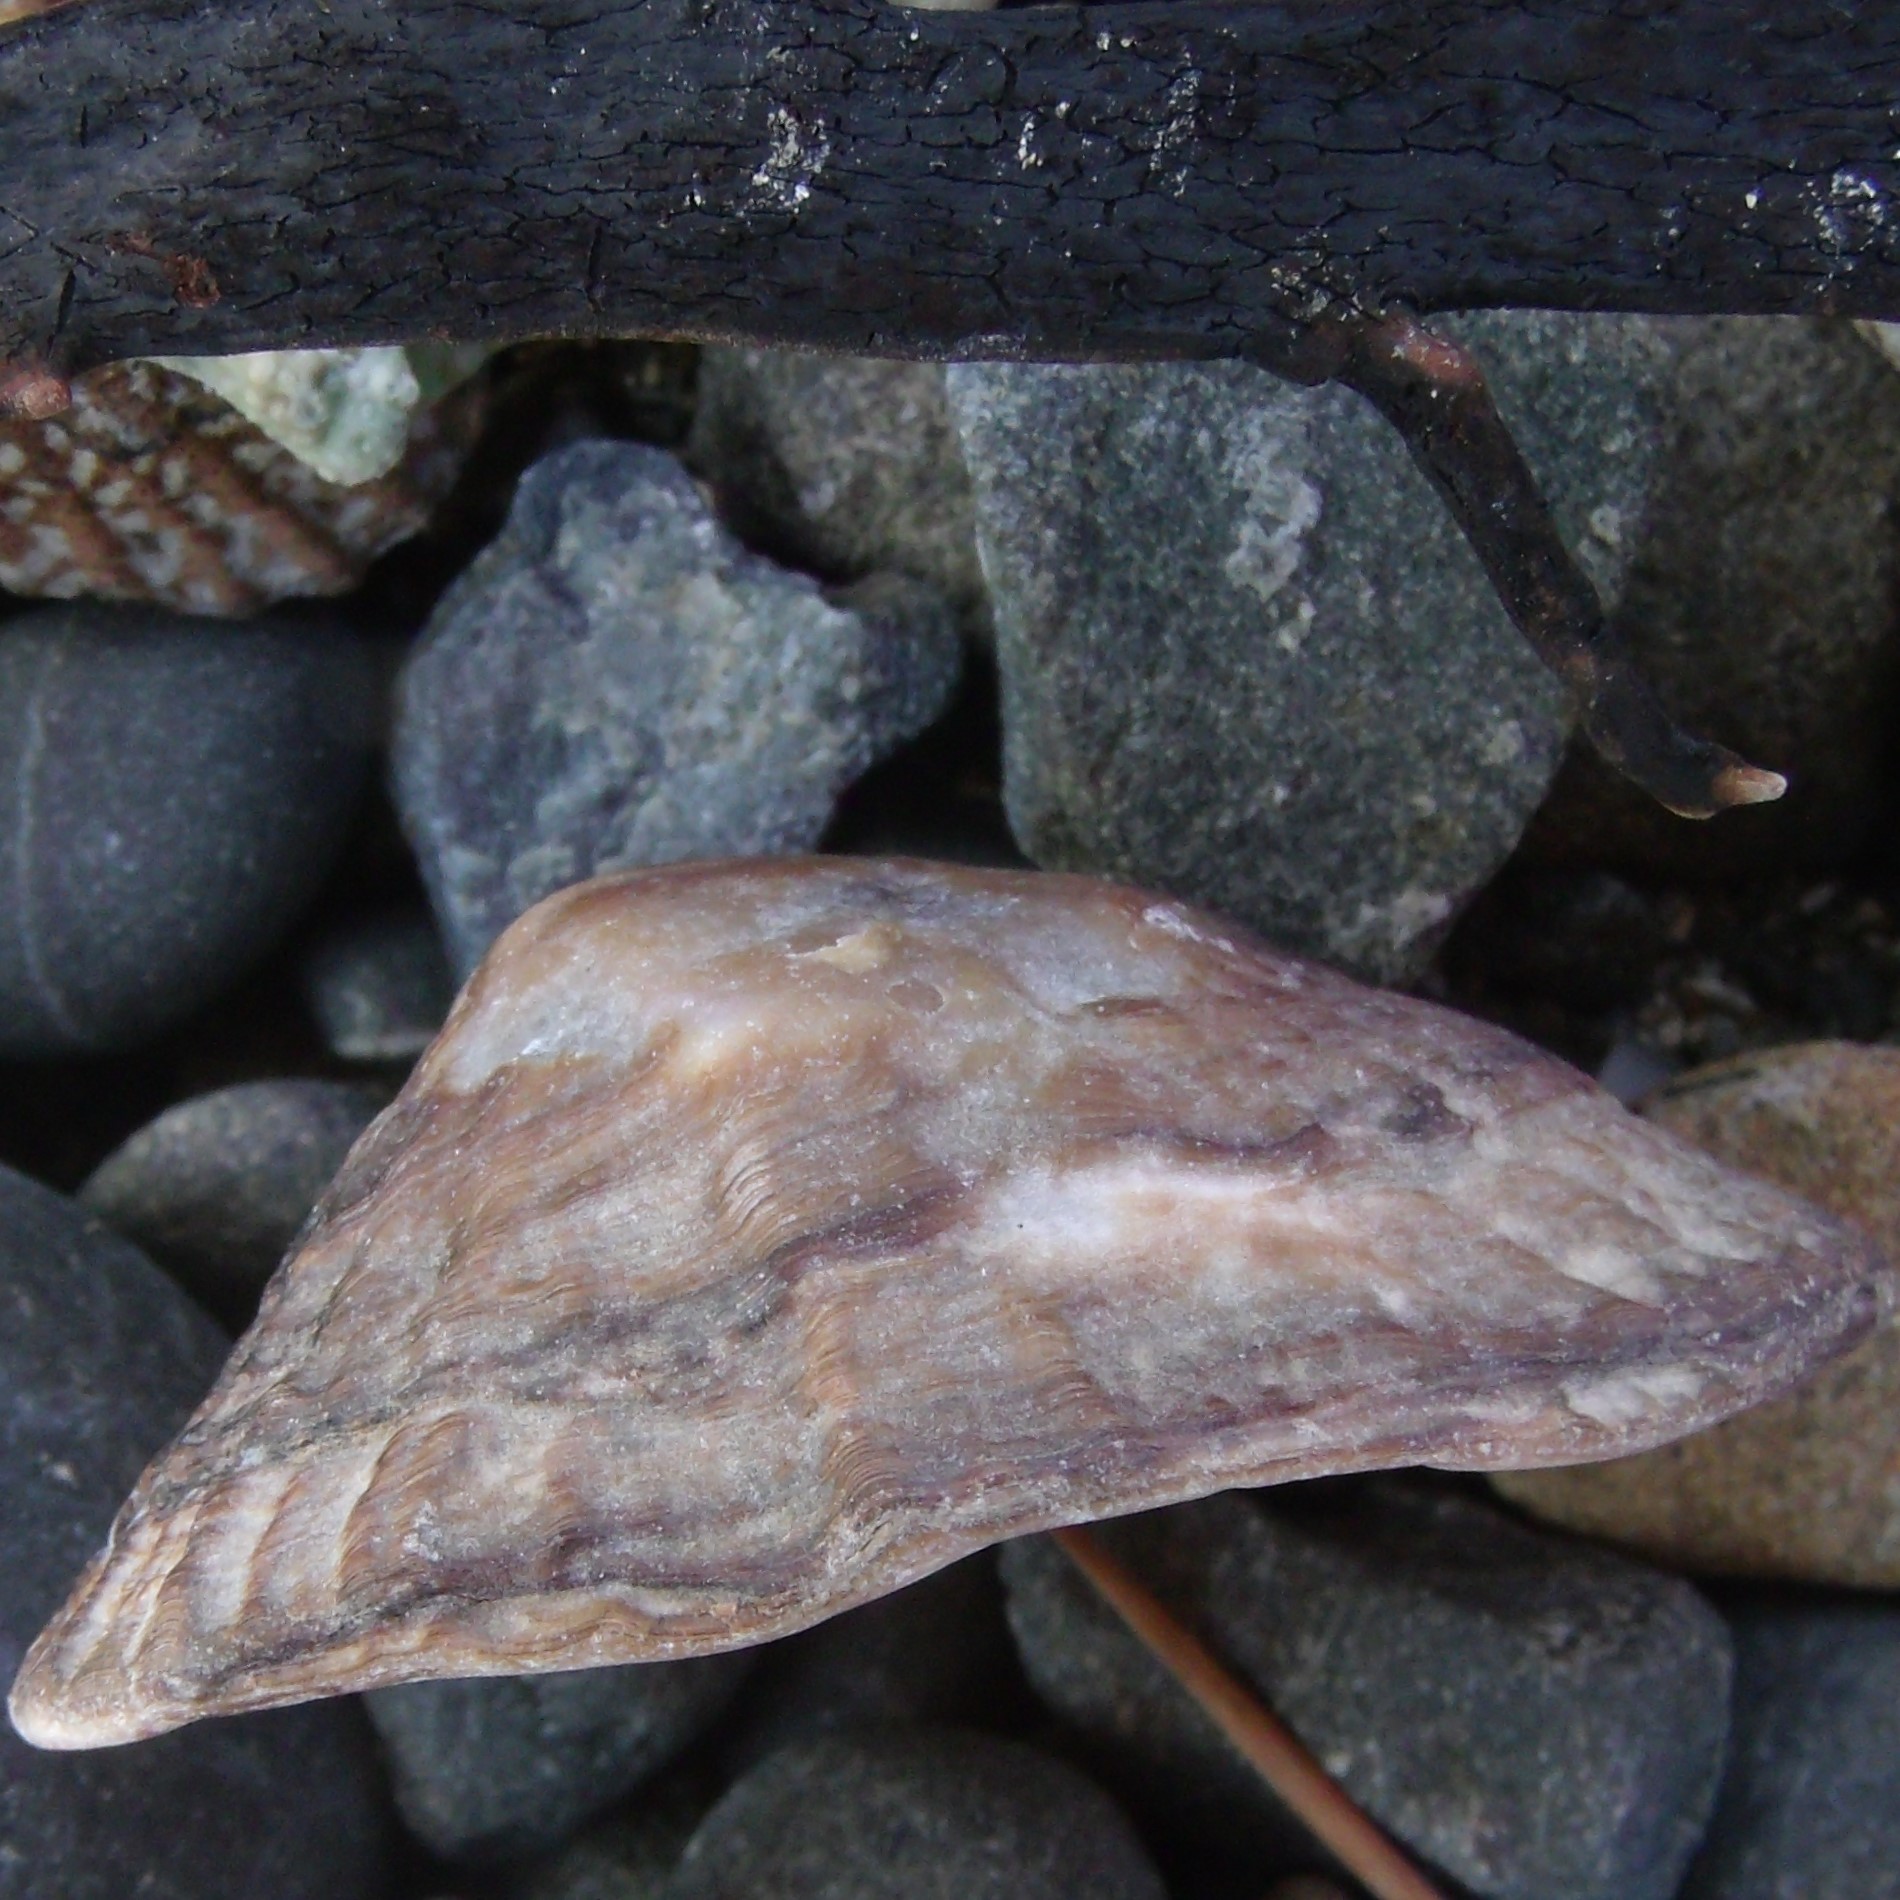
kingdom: Animalia
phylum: Mollusca
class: Gastropoda
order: Siphonariida
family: Siphonariidae
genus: Benhamina
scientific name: Benhamina obliquata
